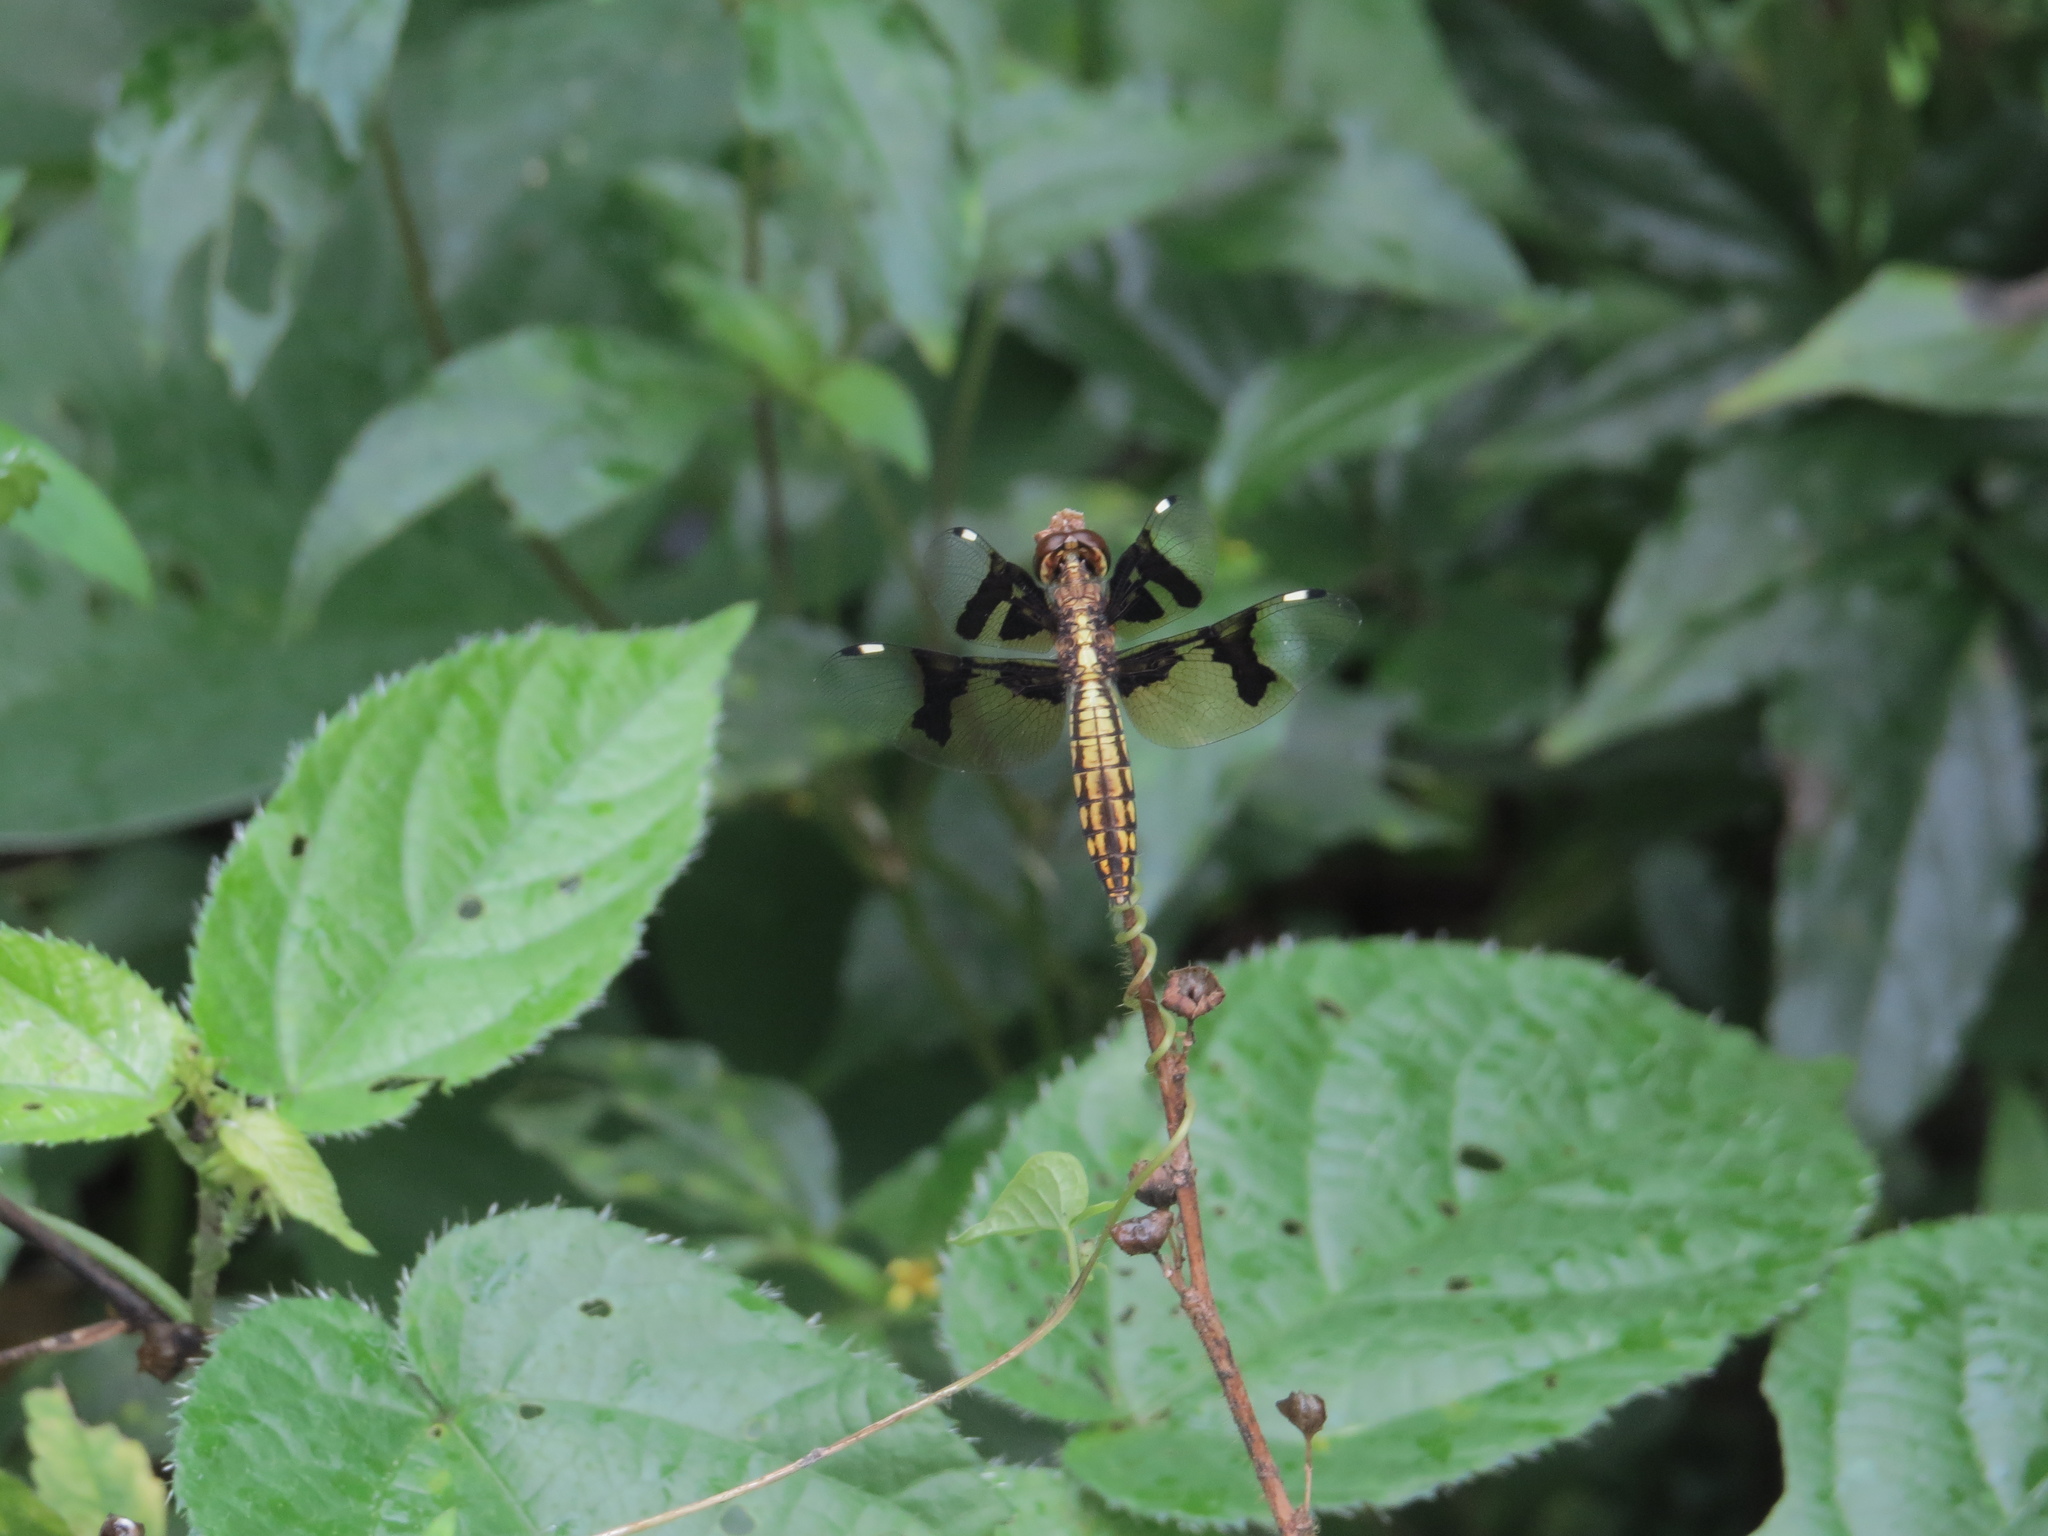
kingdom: Animalia
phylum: Arthropoda
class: Insecta
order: Odonata
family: Libellulidae
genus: Palpopleura
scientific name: Palpopleura lucia
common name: Lucia widow
